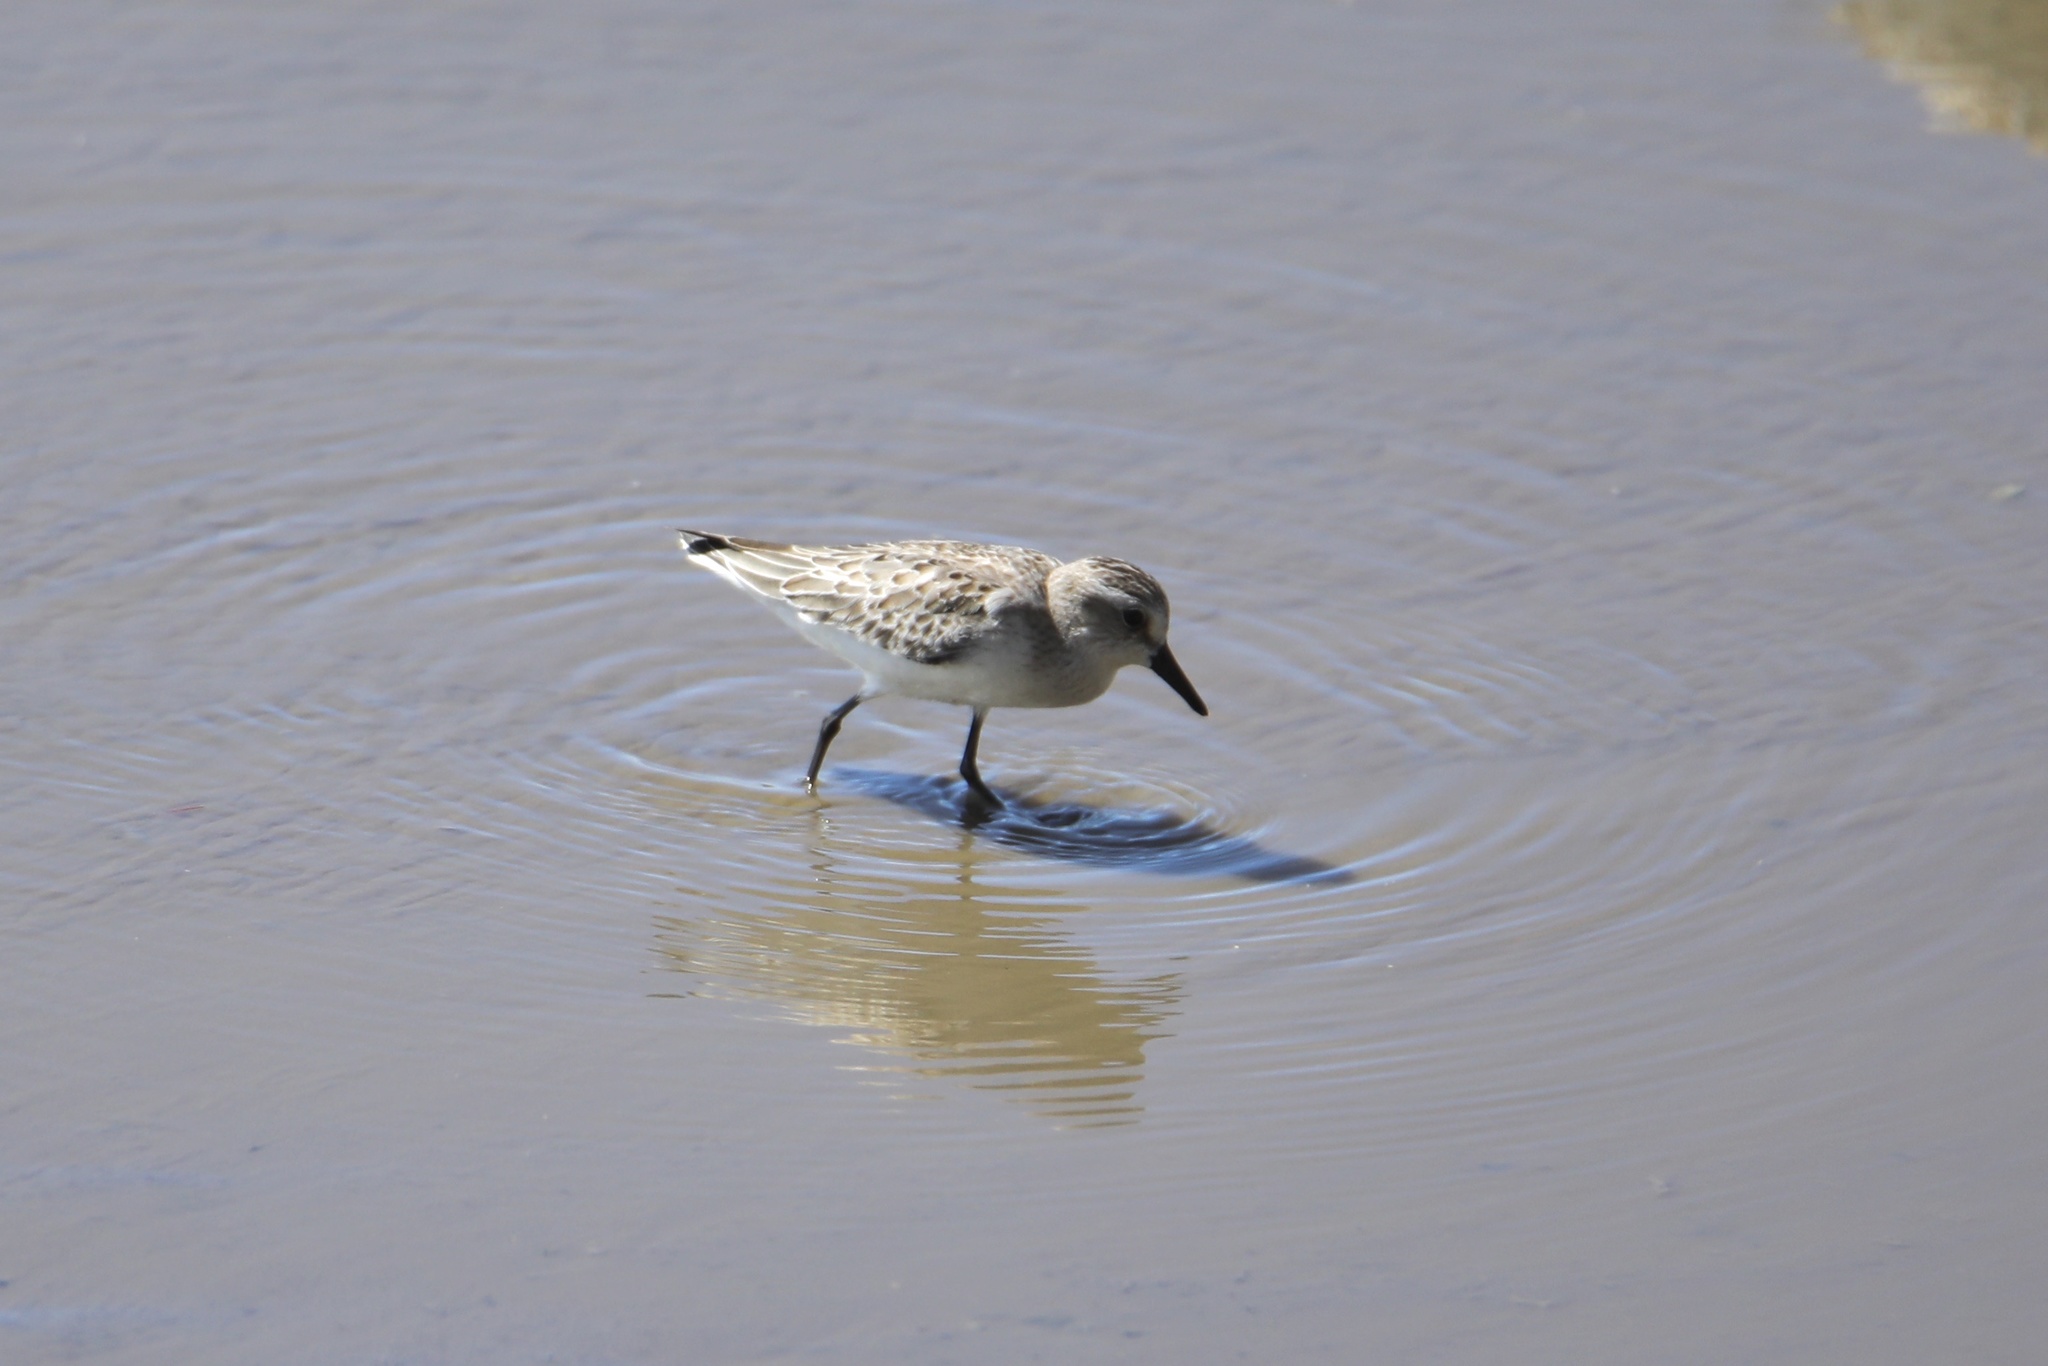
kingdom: Animalia
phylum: Chordata
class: Aves
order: Charadriiformes
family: Scolopacidae
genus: Calidris
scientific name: Calidris pusilla
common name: Semipalmated sandpiper
